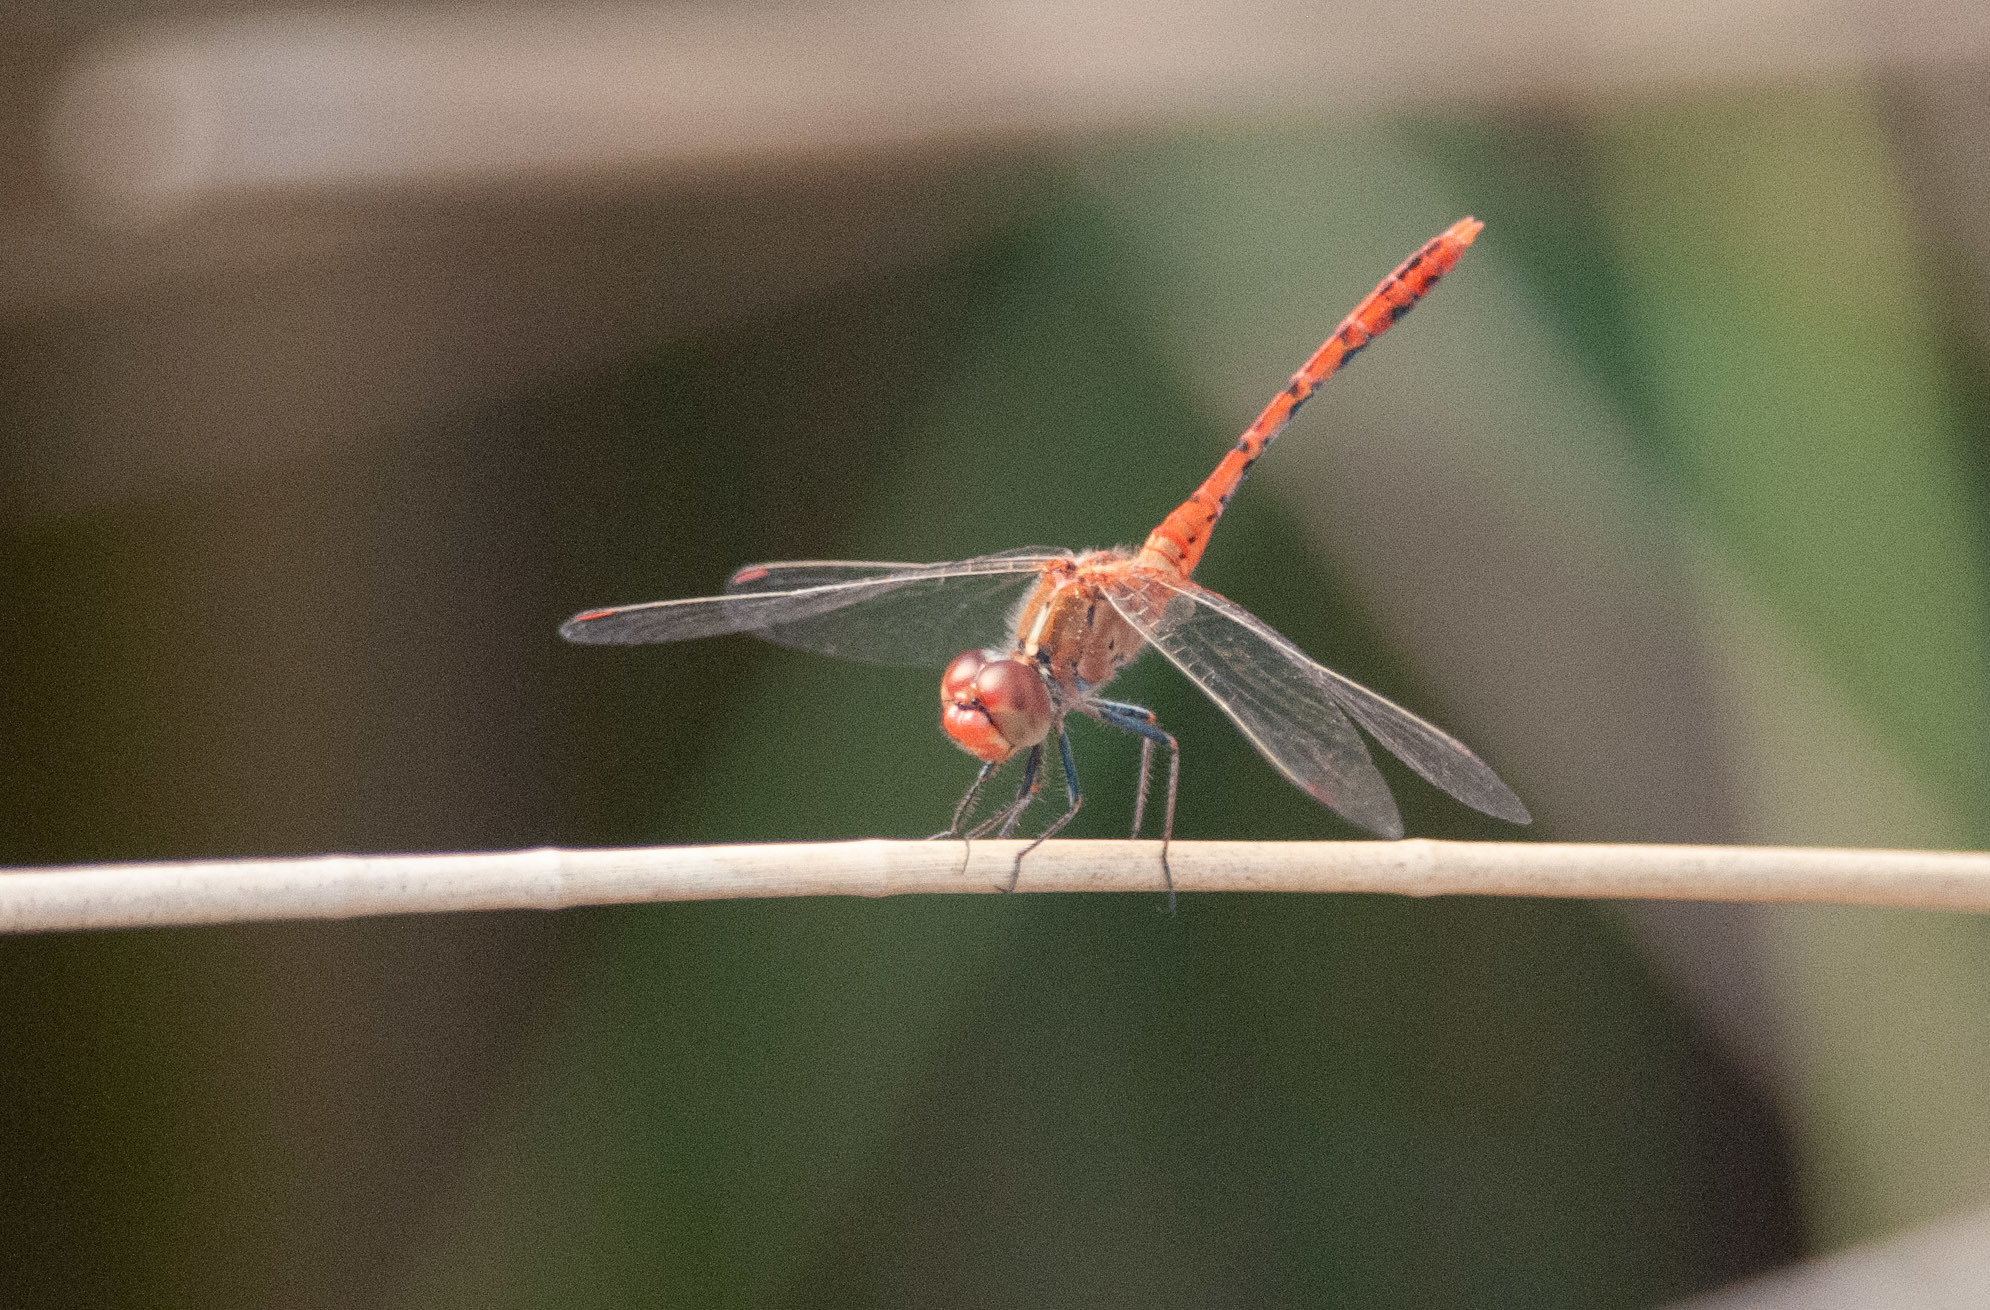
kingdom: Animalia
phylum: Arthropoda
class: Insecta
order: Odonata
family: Libellulidae
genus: Diplacodes
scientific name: Diplacodes bipunctata
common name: Red percher dragonfly
